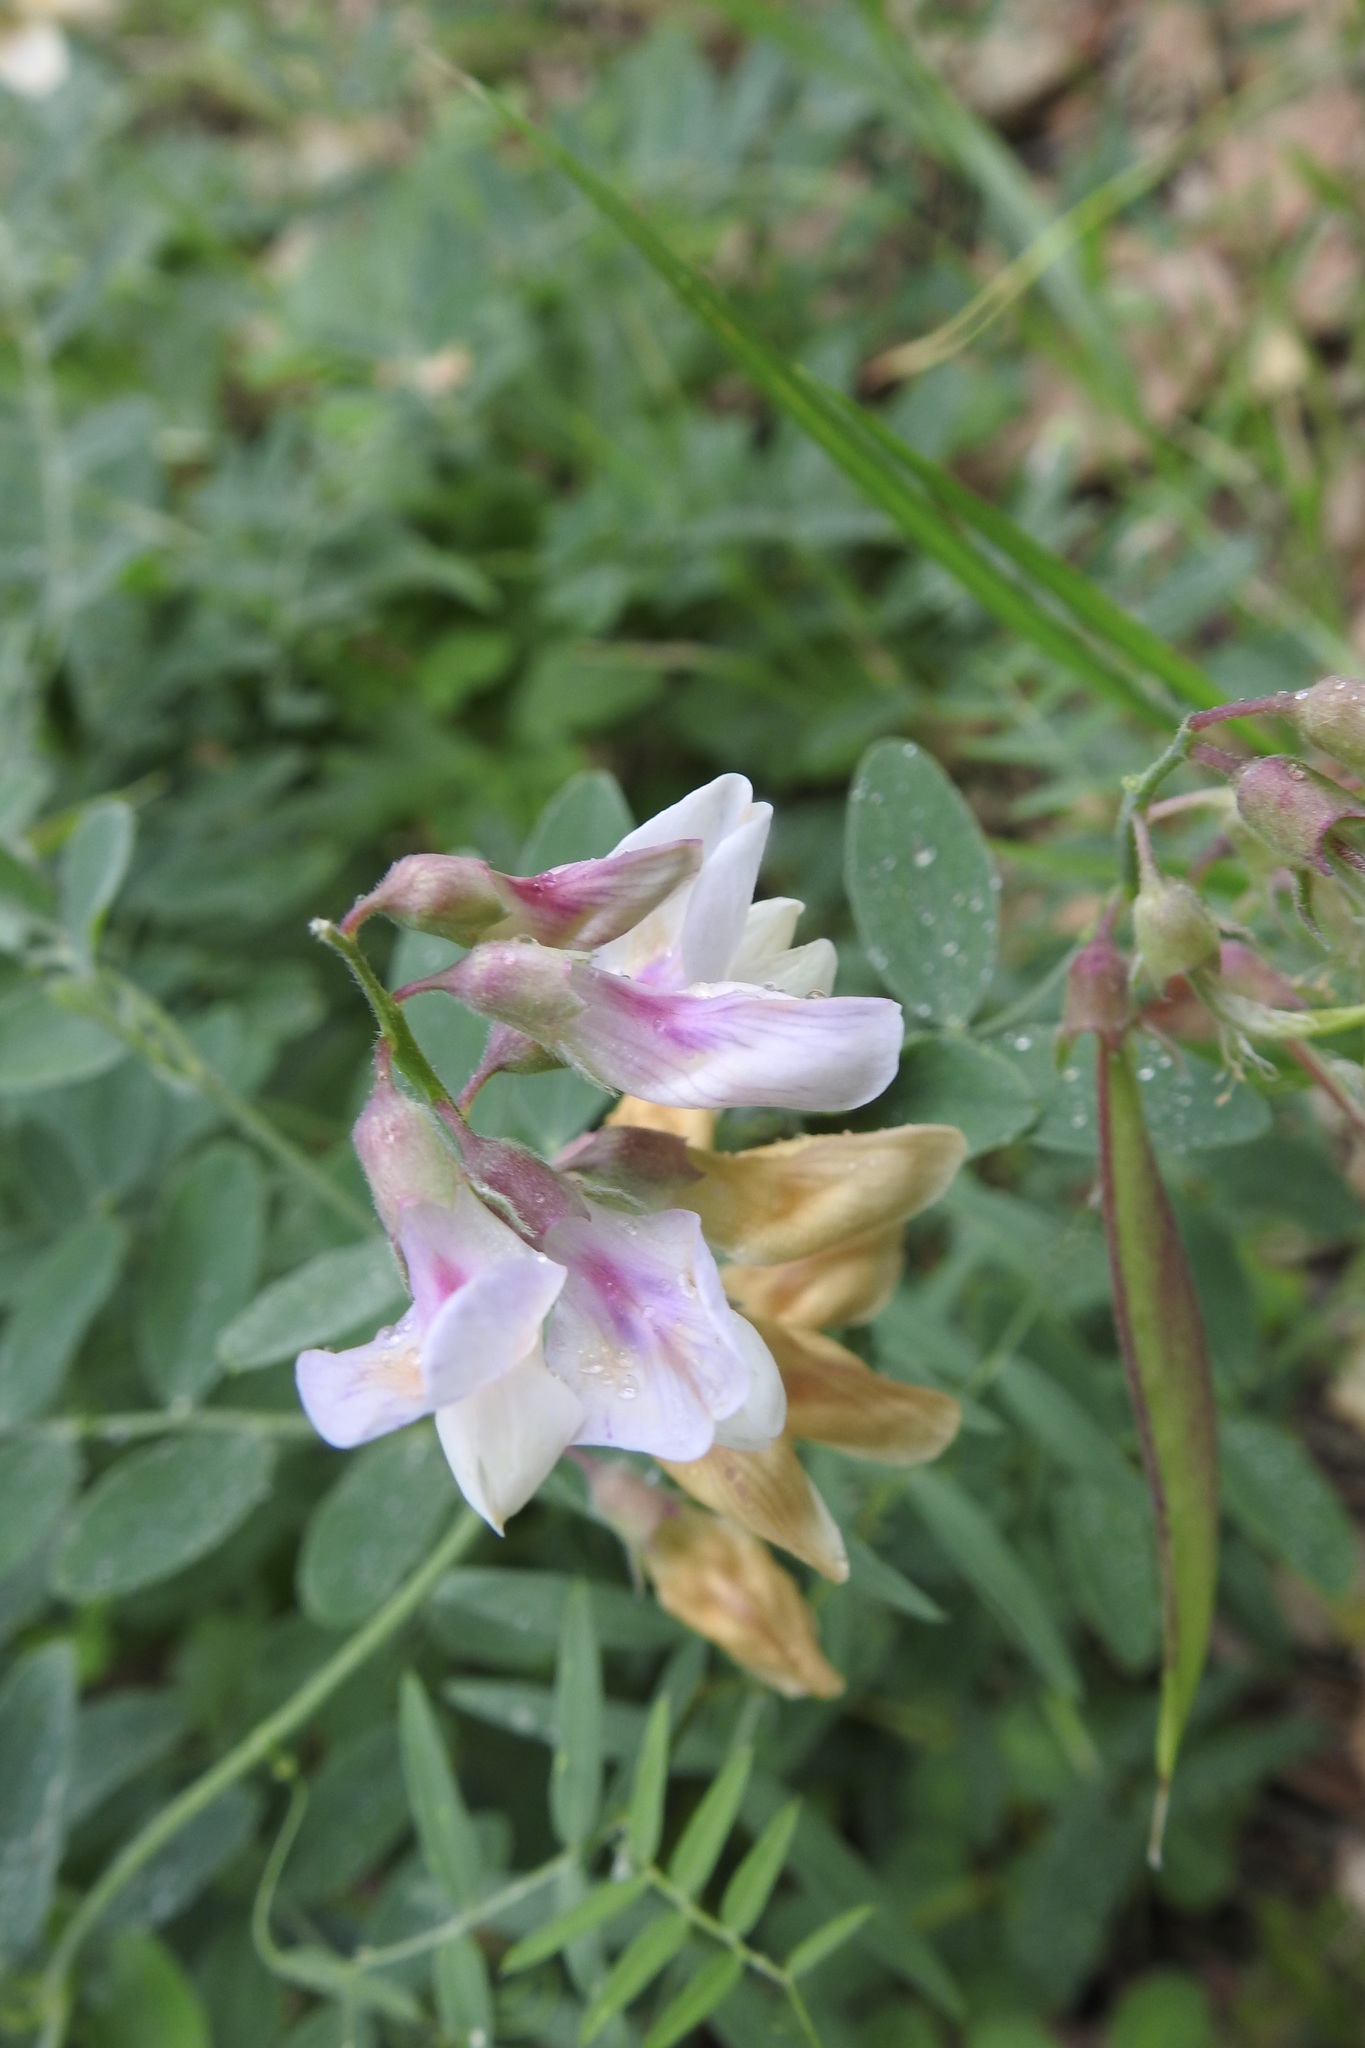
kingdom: Plantae
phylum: Tracheophyta
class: Magnoliopsida
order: Fabales
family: Fabaceae
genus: Lathyrus
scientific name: Lathyrus vestitus
